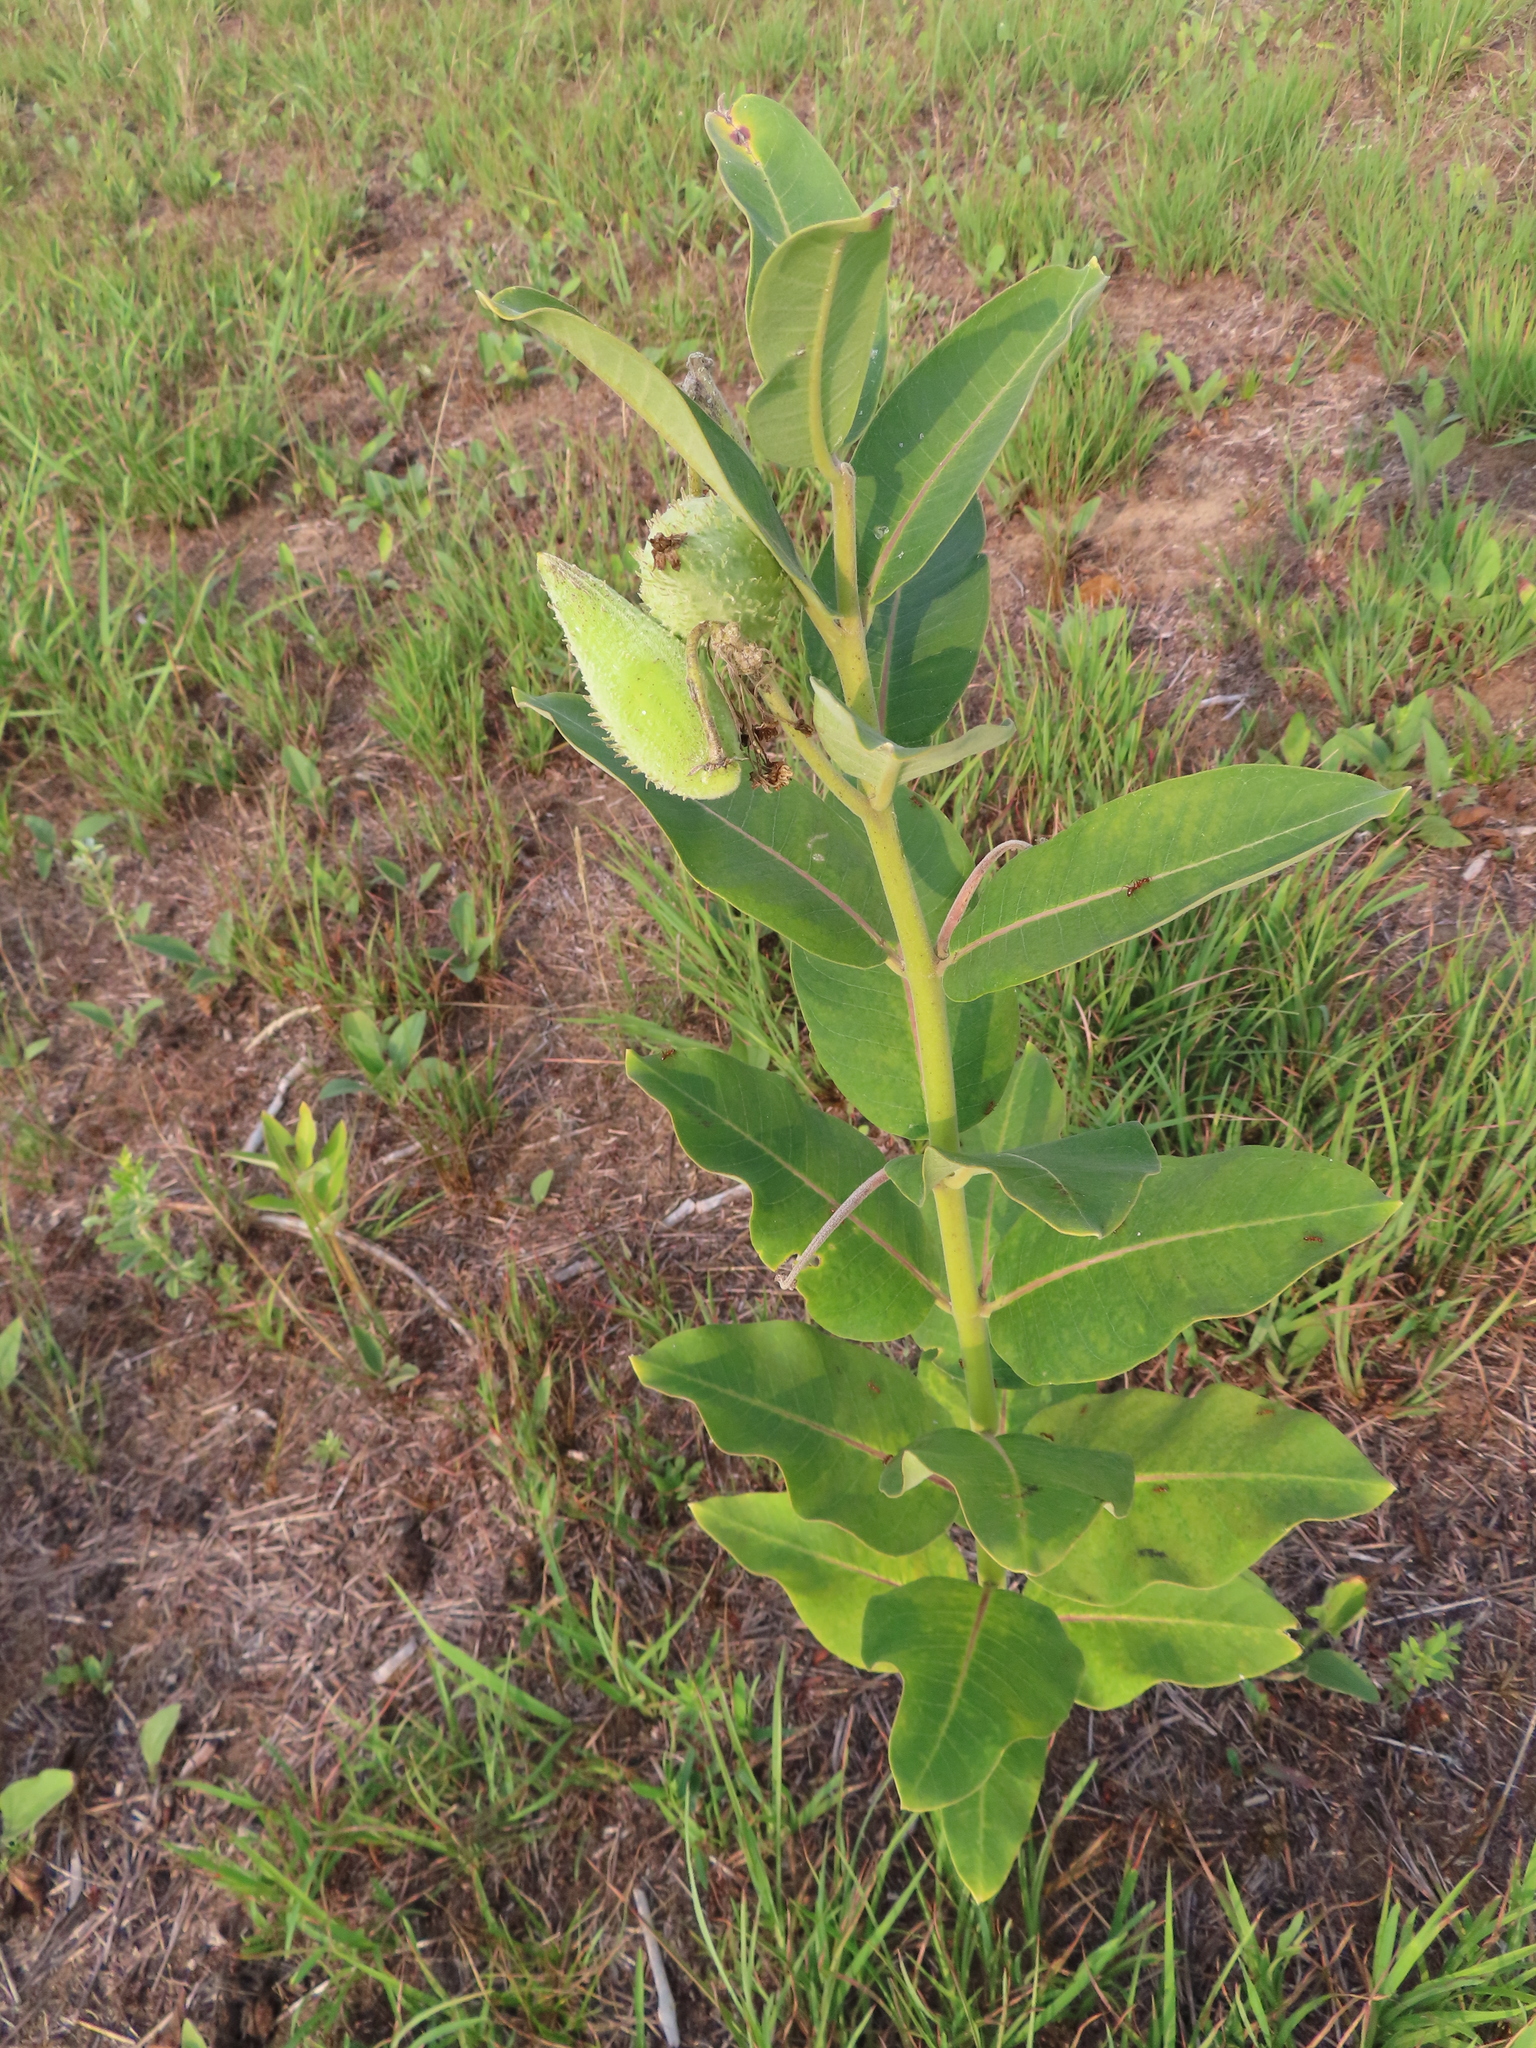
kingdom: Plantae
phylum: Tracheophyta
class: Magnoliopsida
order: Gentianales
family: Apocynaceae
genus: Asclepias
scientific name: Asclepias syriaca
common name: Common milkweed
